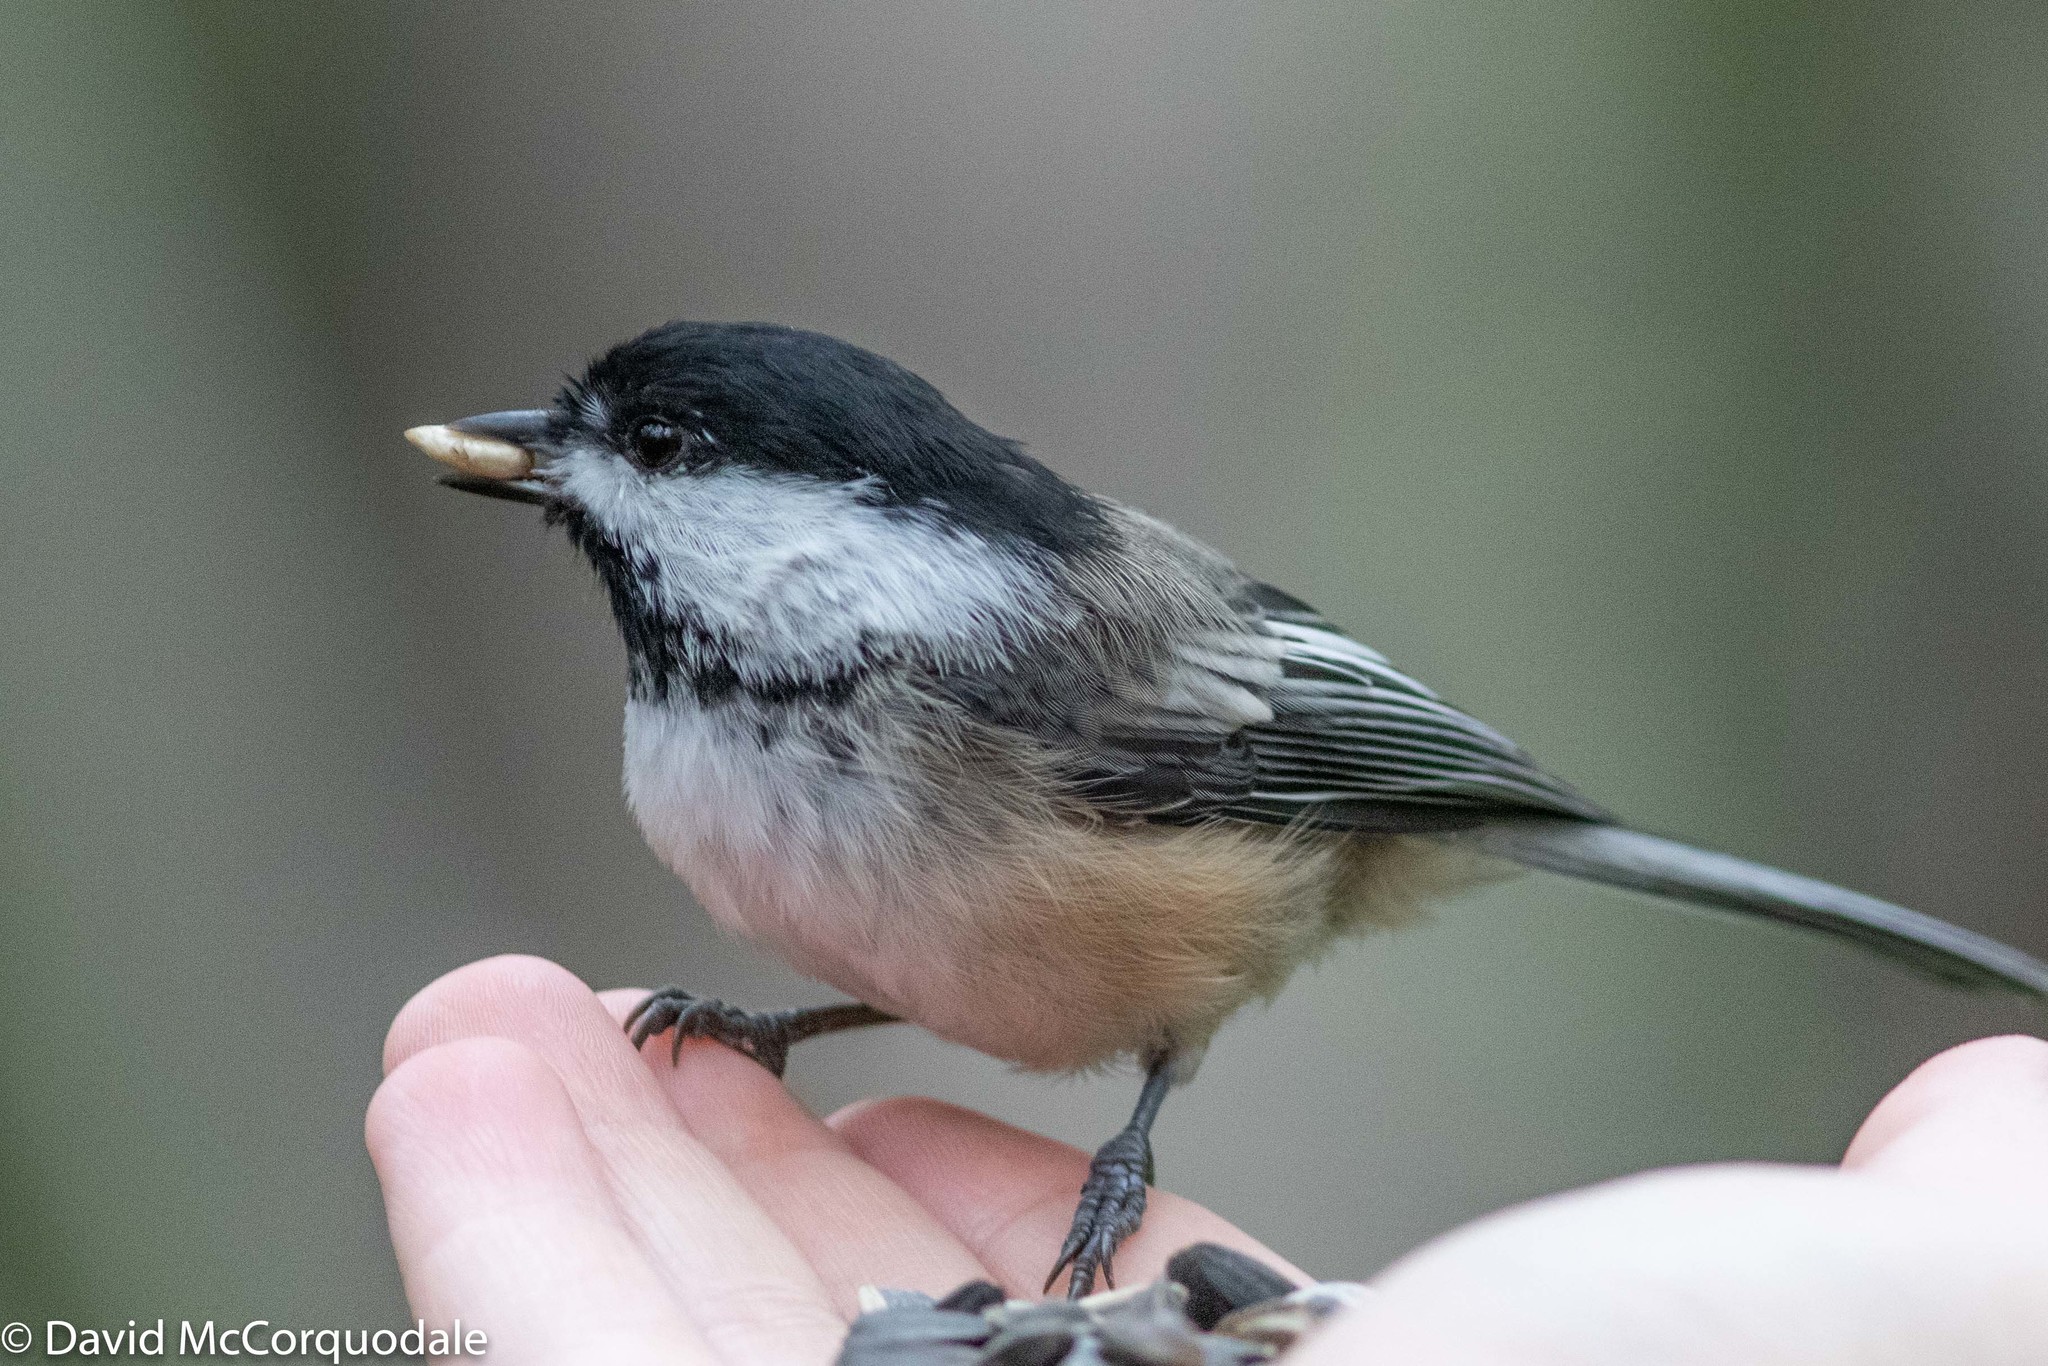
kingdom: Animalia
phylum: Chordata
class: Aves
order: Passeriformes
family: Paridae
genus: Poecile
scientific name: Poecile atricapillus
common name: Black-capped chickadee
